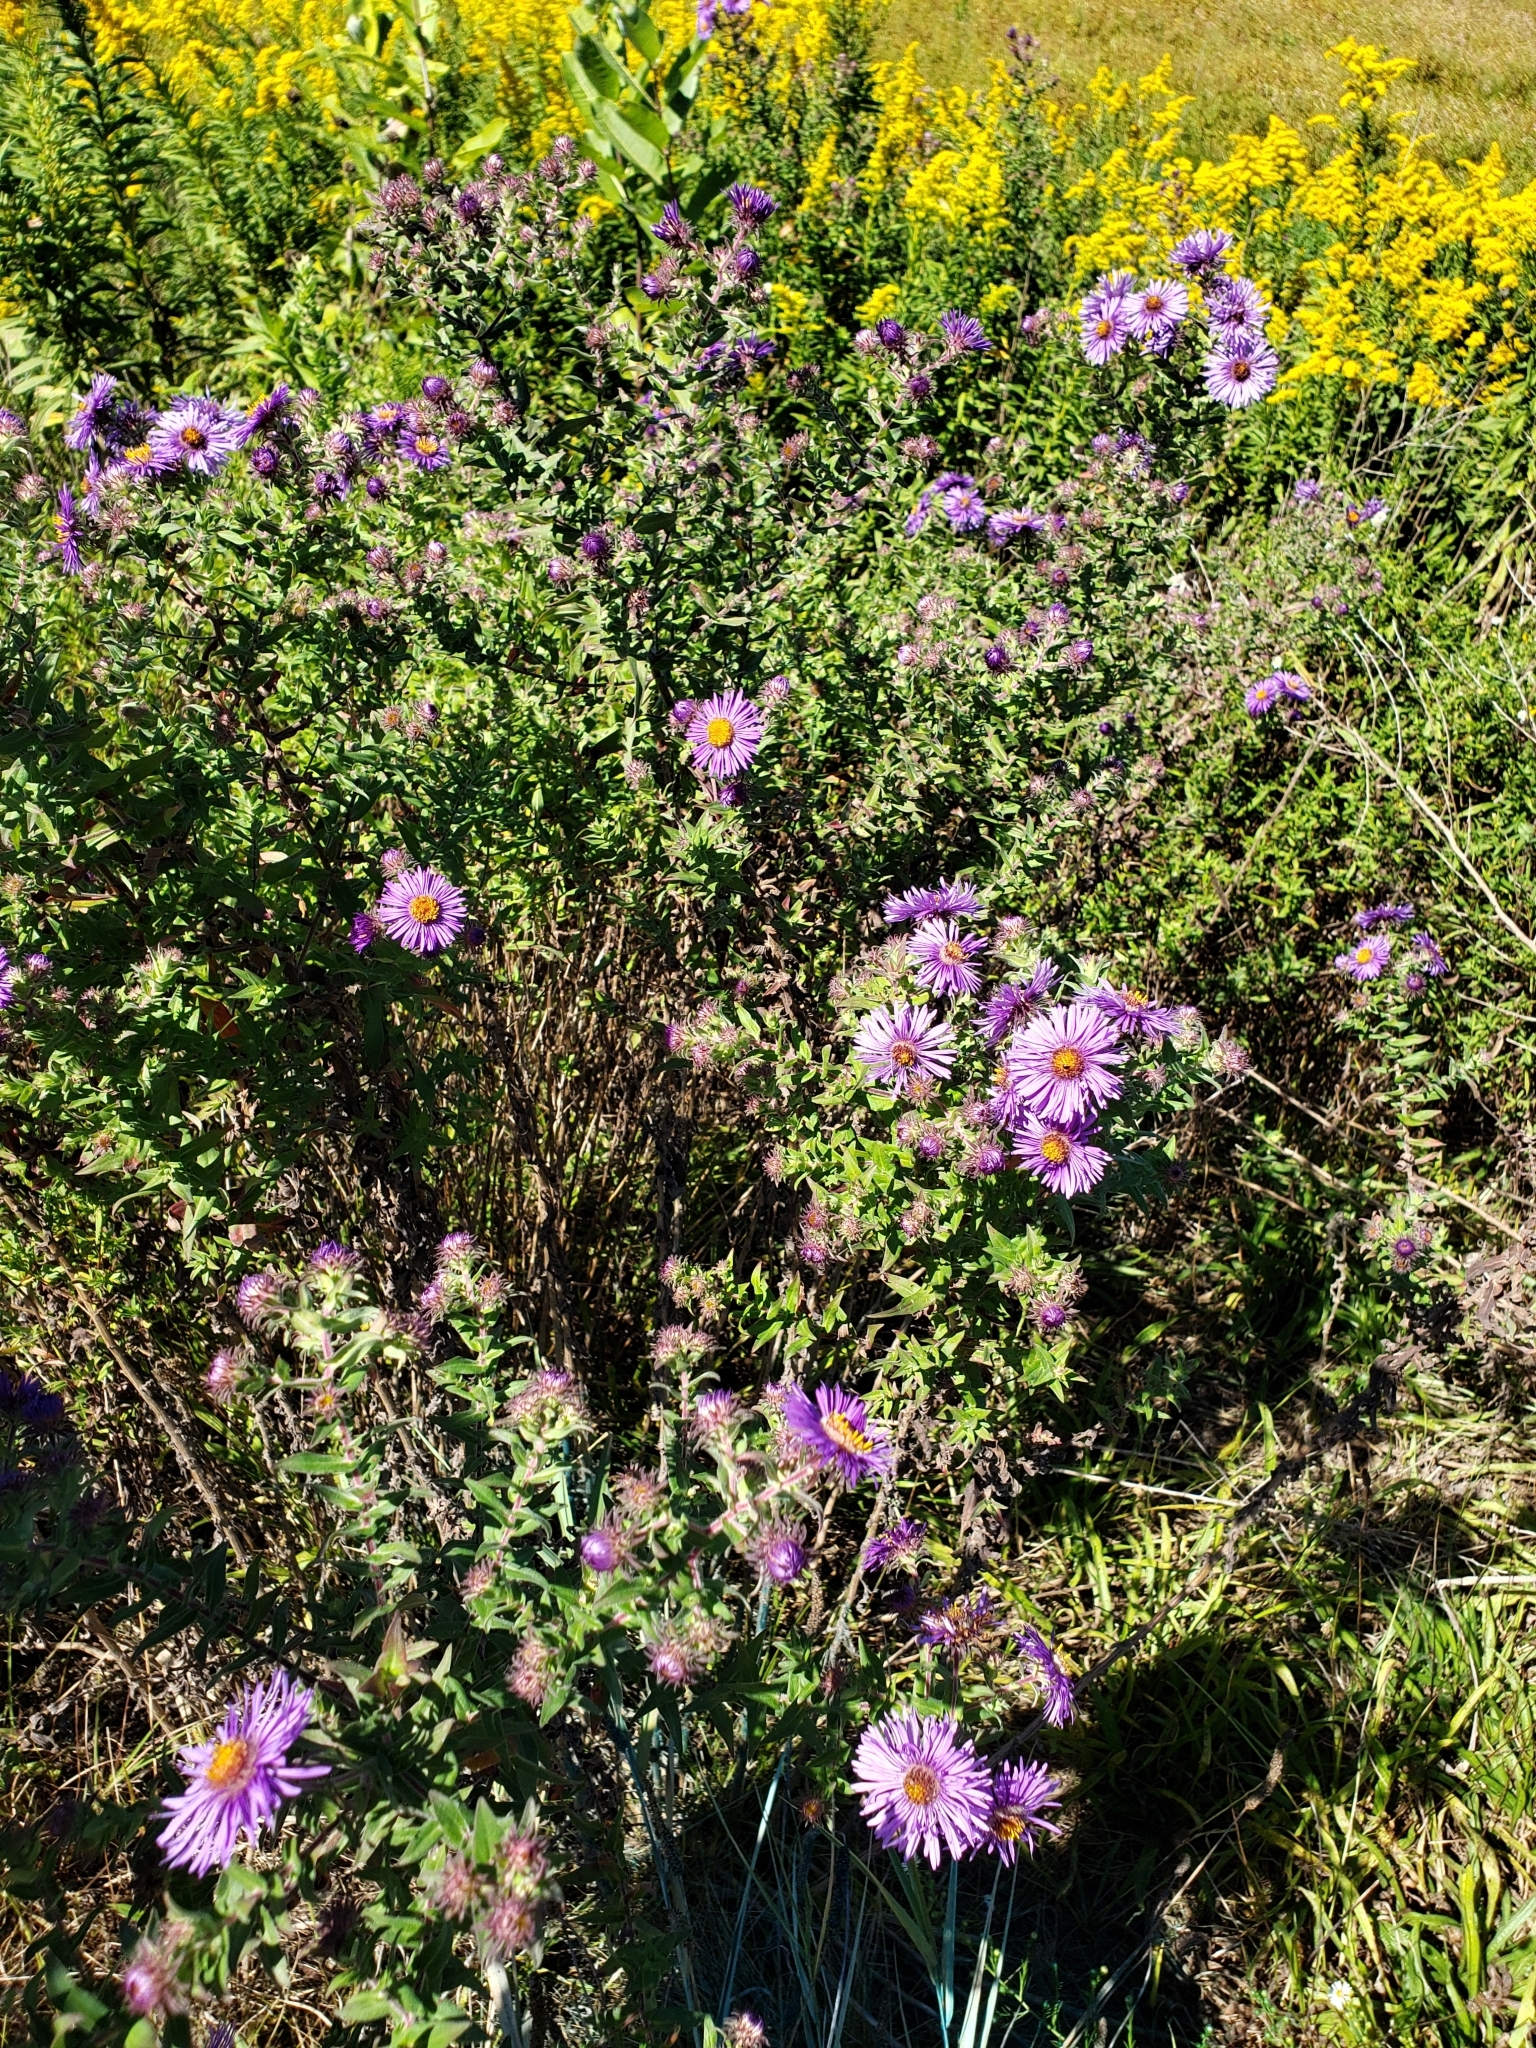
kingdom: Plantae
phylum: Tracheophyta
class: Magnoliopsida
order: Asterales
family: Asteraceae
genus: Symphyotrichum
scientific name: Symphyotrichum novae-angliae
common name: Michaelmas daisy
